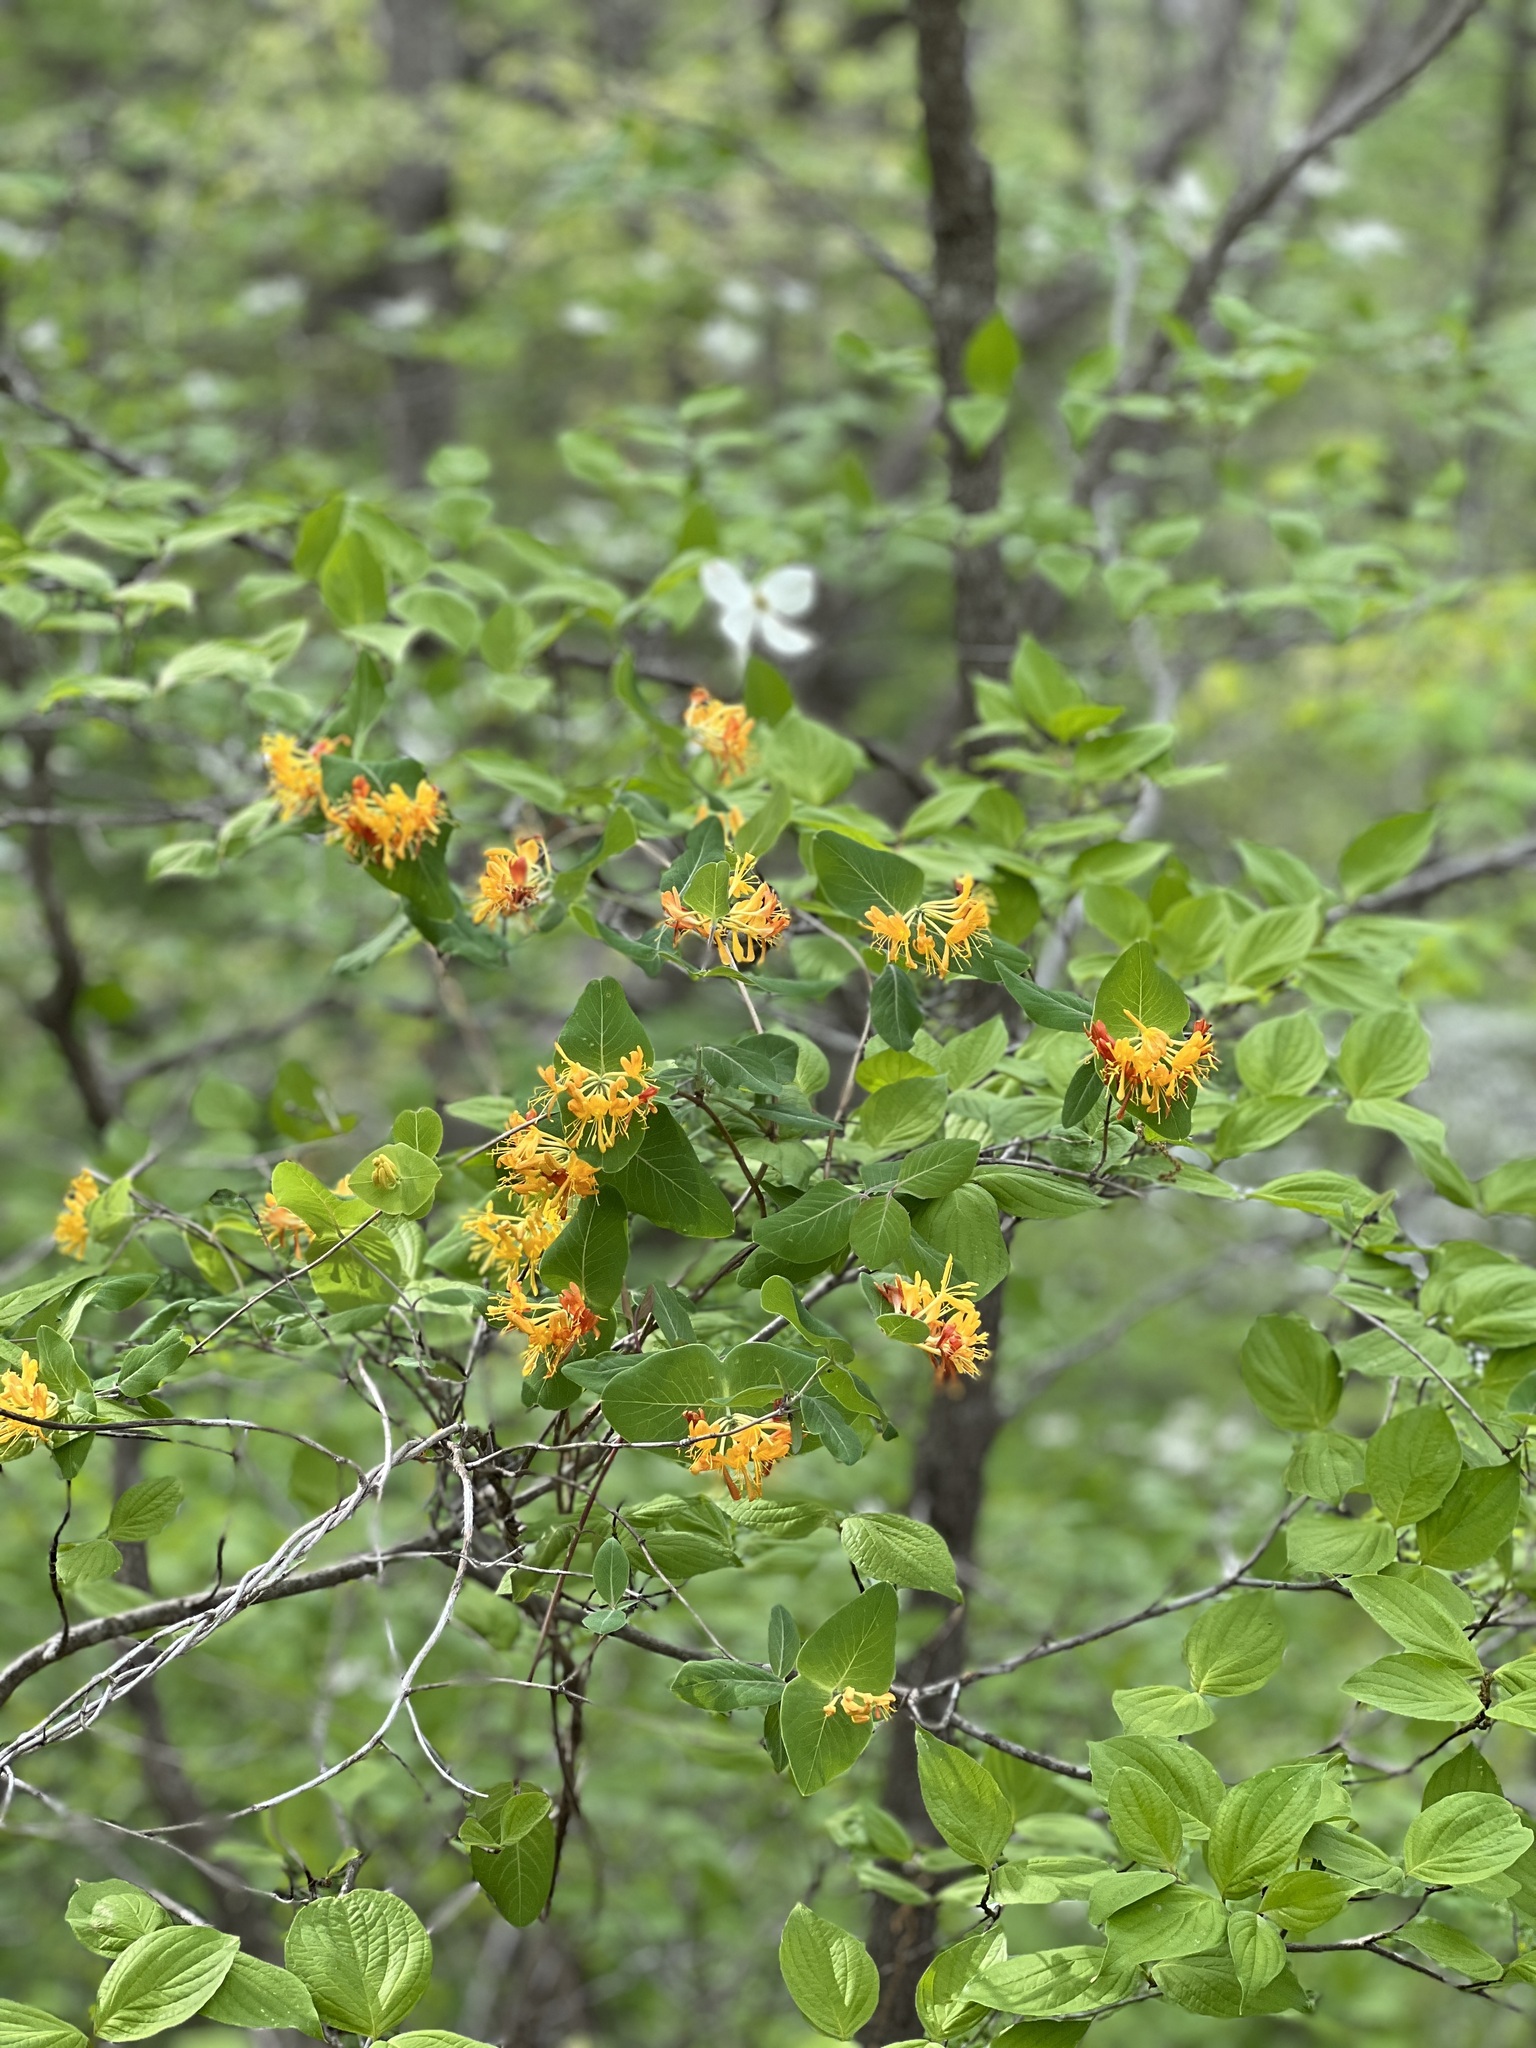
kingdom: Plantae
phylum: Tracheophyta
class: Magnoliopsida
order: Dipsacales
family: Caprifoliaceae
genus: Lonicera
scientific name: Lonicera flava
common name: Yellow honeysuckle
